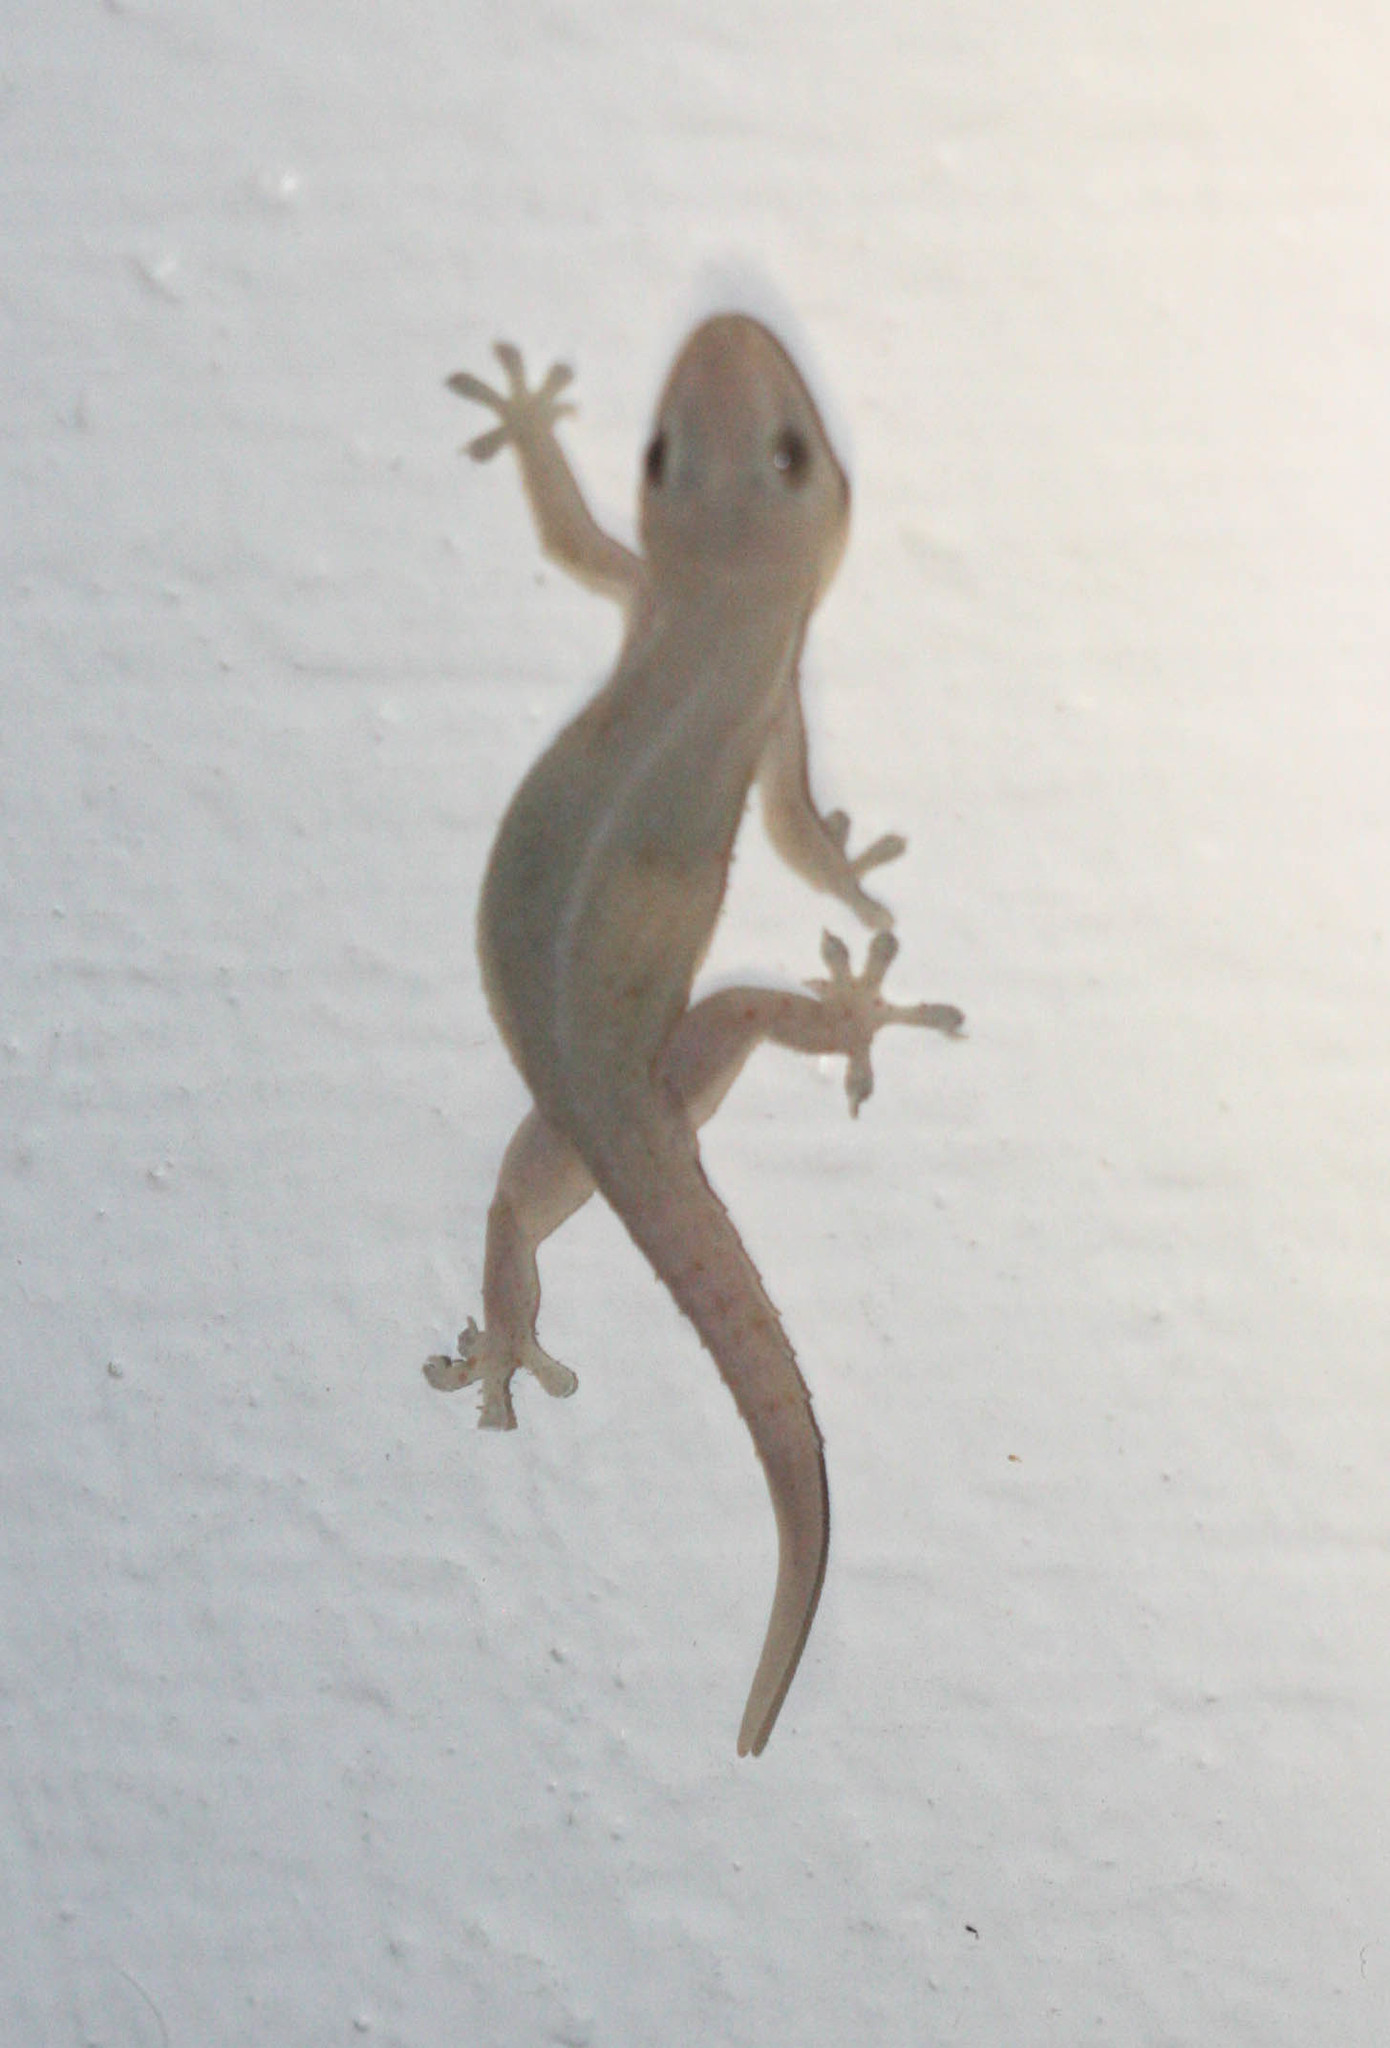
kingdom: Animalia
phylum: Chordata
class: Squamata
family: Gekkonidae
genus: Hemidactylus
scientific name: Hemidactylus frenatus
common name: Common house gecko
